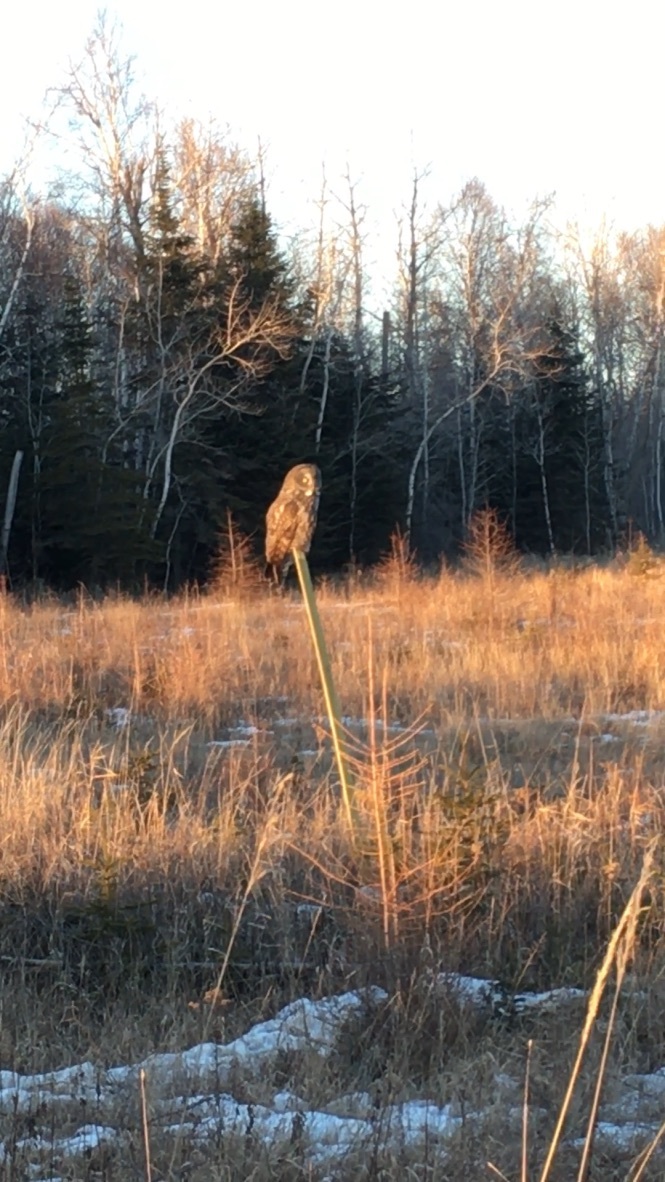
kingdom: Animalia
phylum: Chordata
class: Aves
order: Strigiformes
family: Strigidae
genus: Strix
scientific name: Strix nebulosa
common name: Great grey owl
